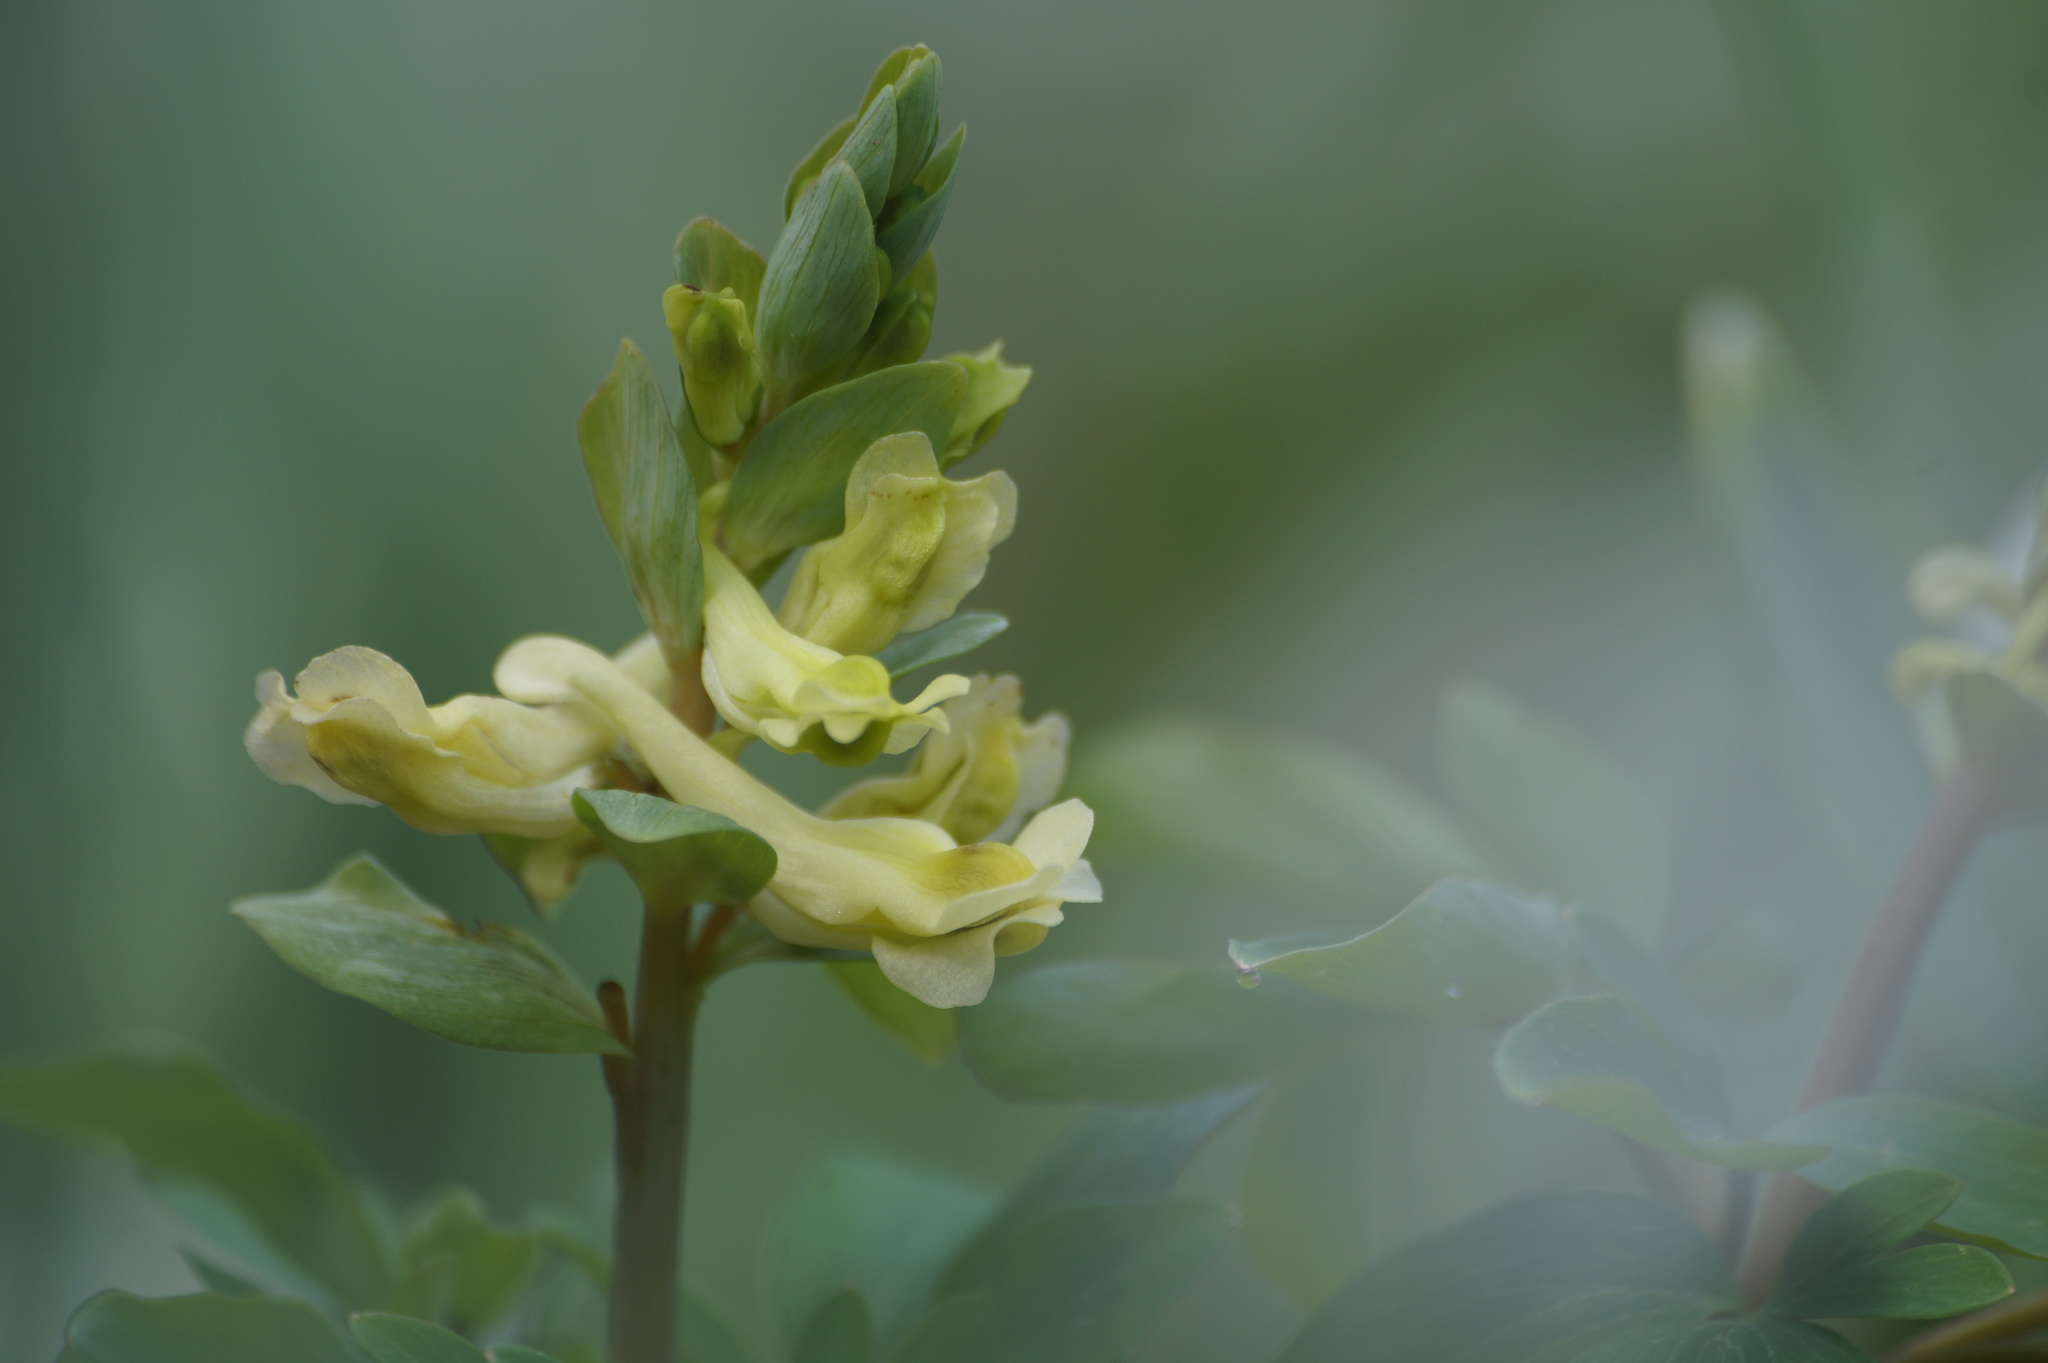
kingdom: Plantae
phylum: Tracheophyta
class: Magnoliopsida
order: Ranunculales
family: Papaveraceae
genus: Corydalis
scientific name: Corydalis cava
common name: Hollowroot
